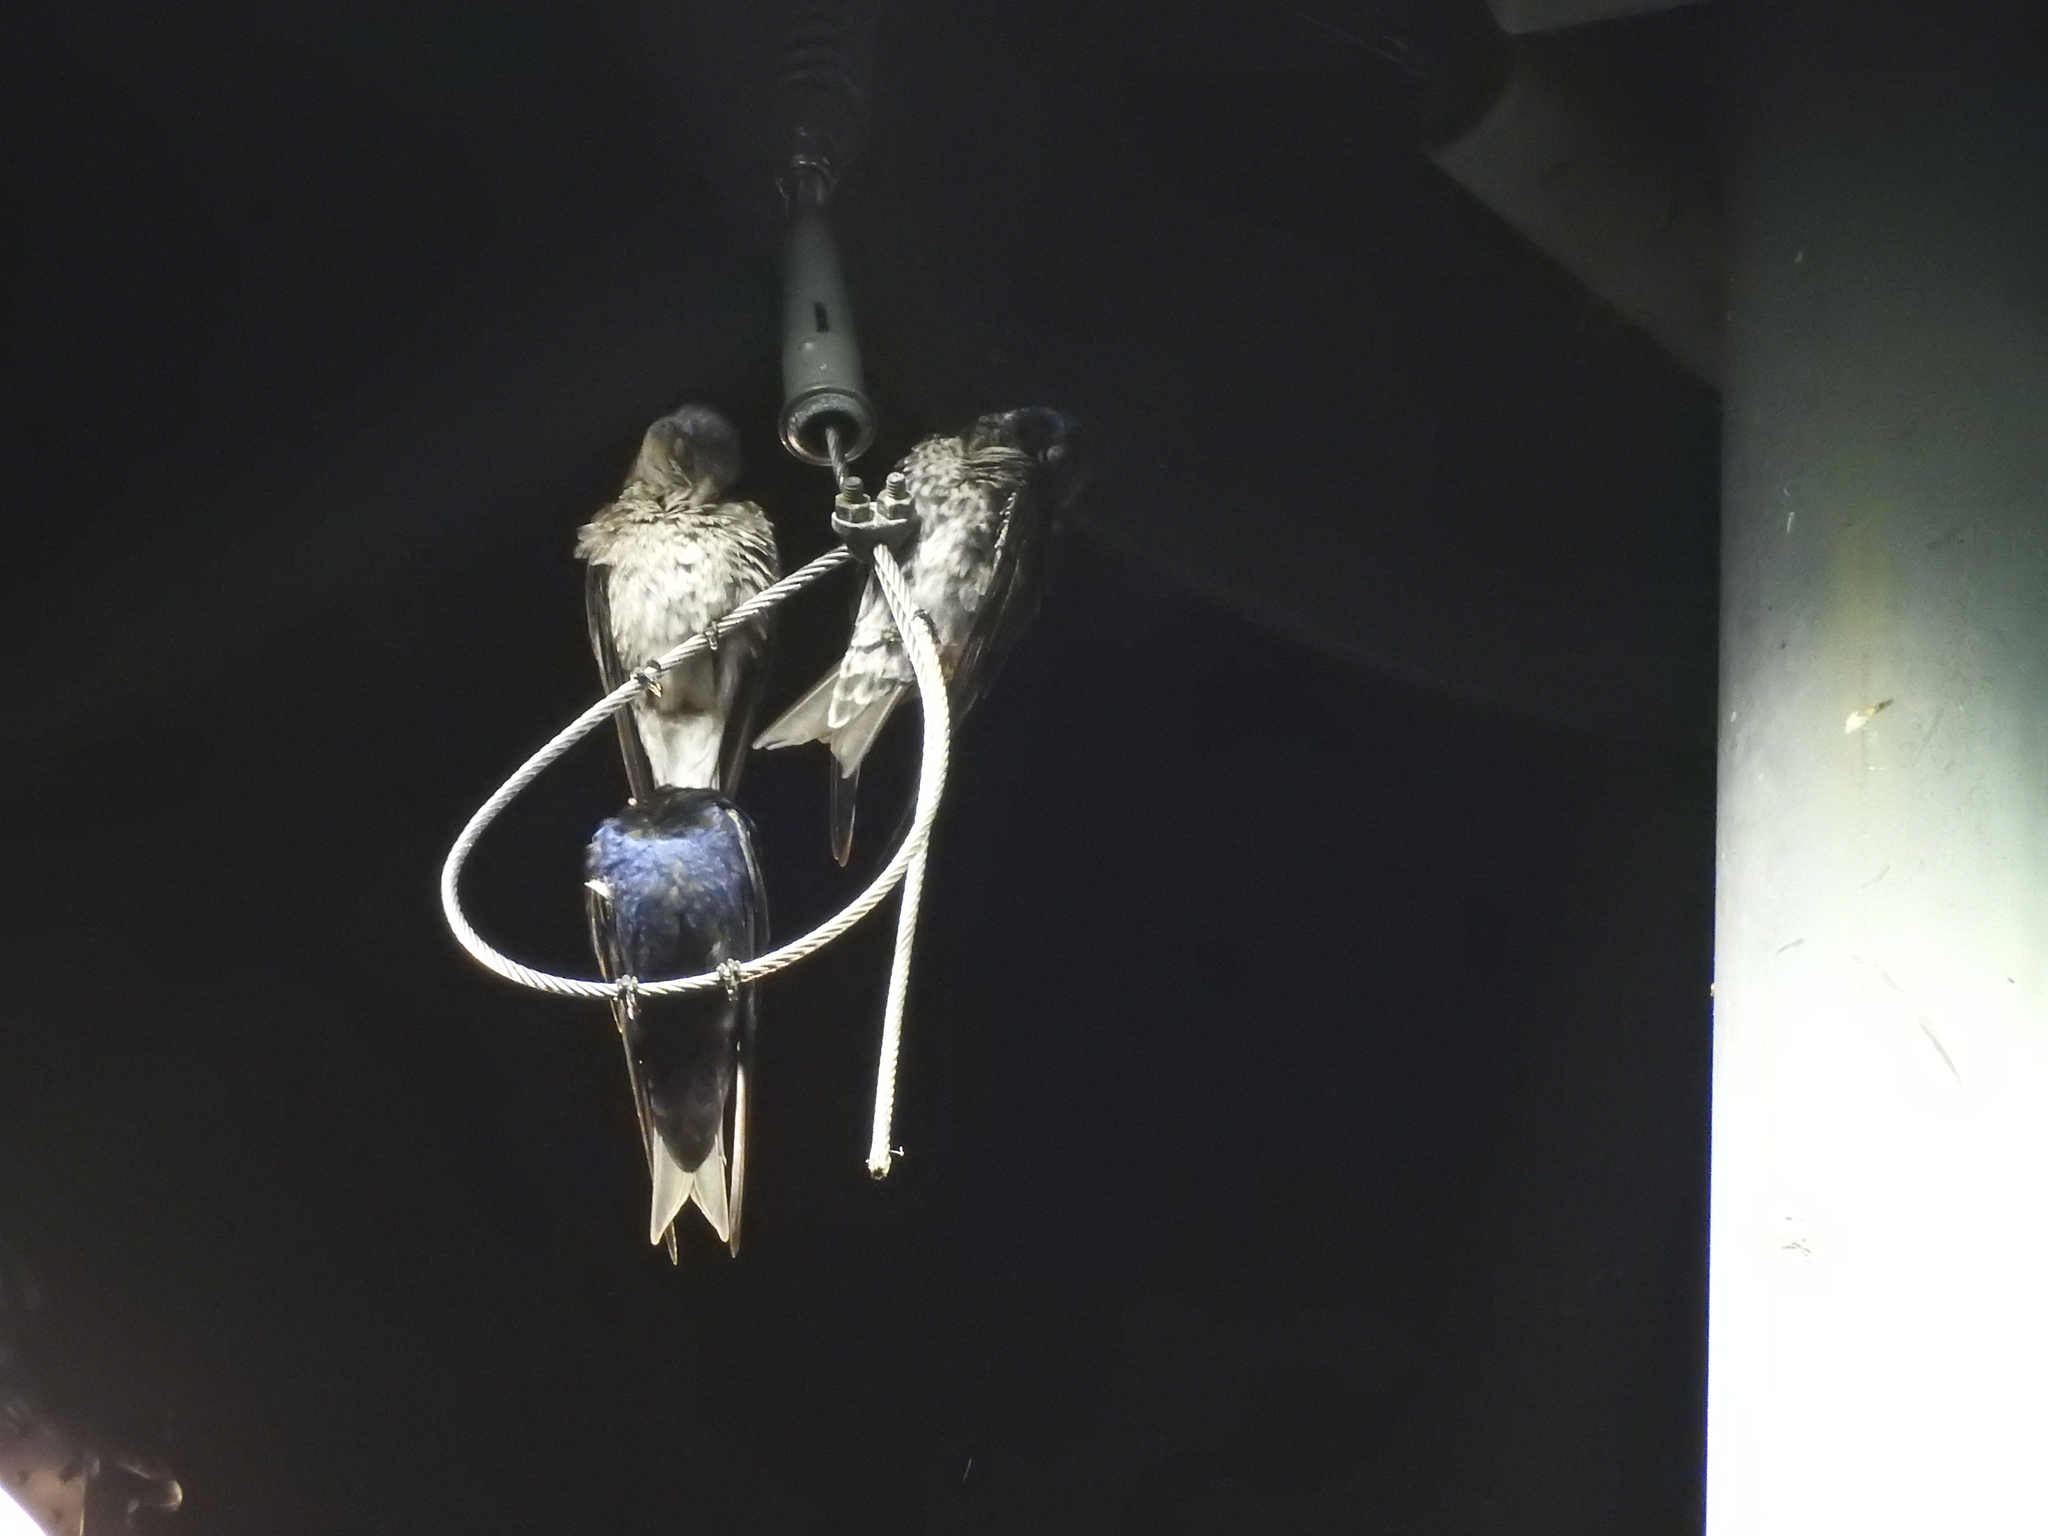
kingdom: Animalia
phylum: Chordata
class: Aves
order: Passeriformes
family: Hirundinidae
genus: Progne
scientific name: Progne subis
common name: Purple martin
